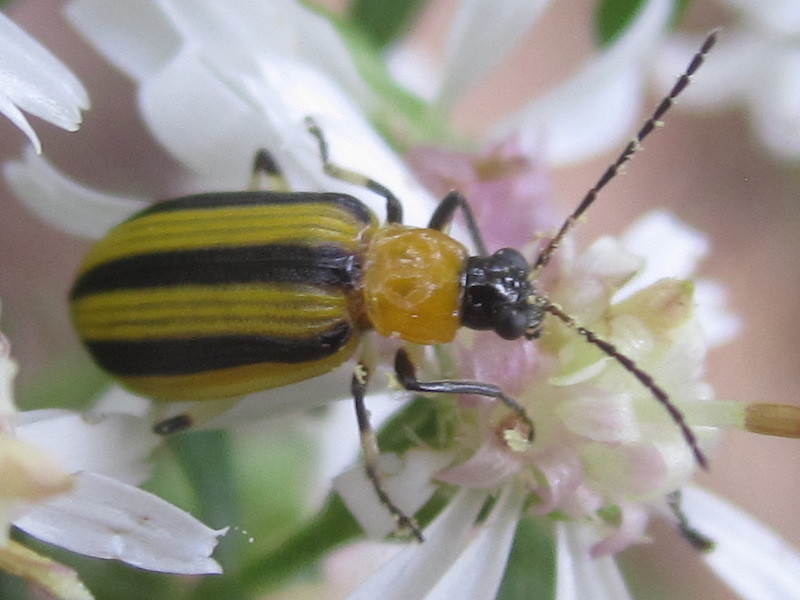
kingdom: Animalia
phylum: Arthropoda
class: Insecta
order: Coleoptera
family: Chrysomelidae
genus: Acalymma
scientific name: Acalymma vittatum
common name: Striped cucumber beetle
